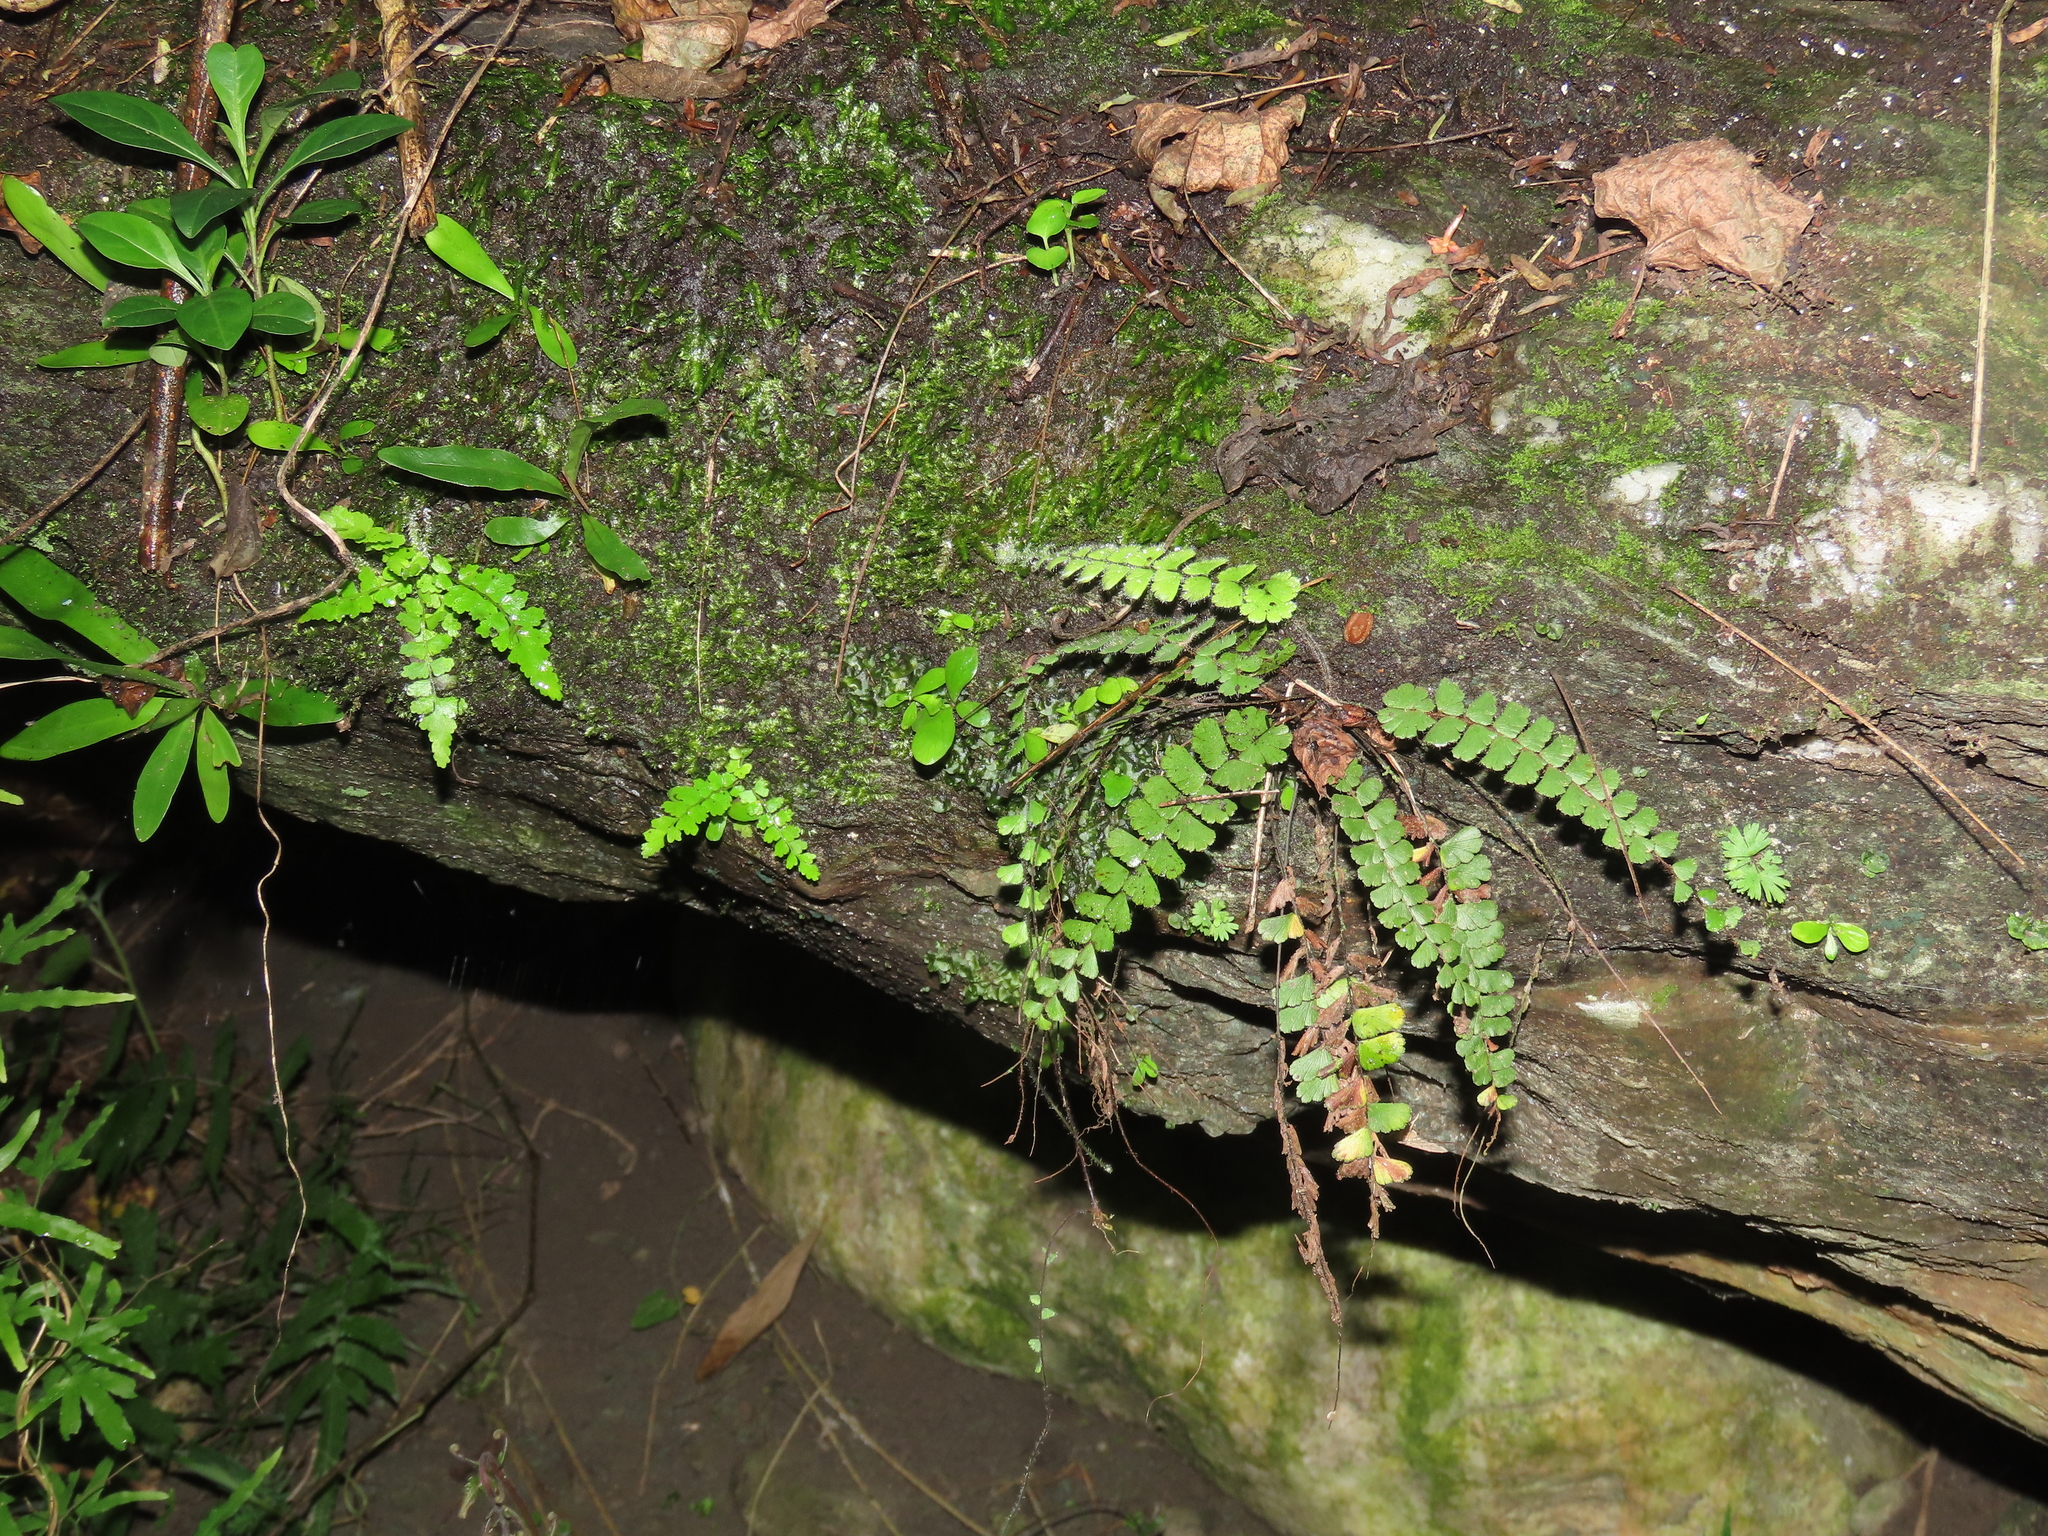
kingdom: Plantae
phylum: Tracheophyta
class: Polypodiopsida
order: Polypodiales
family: Pteridaceae
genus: Adiantum
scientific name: Adiantum ciliatum
